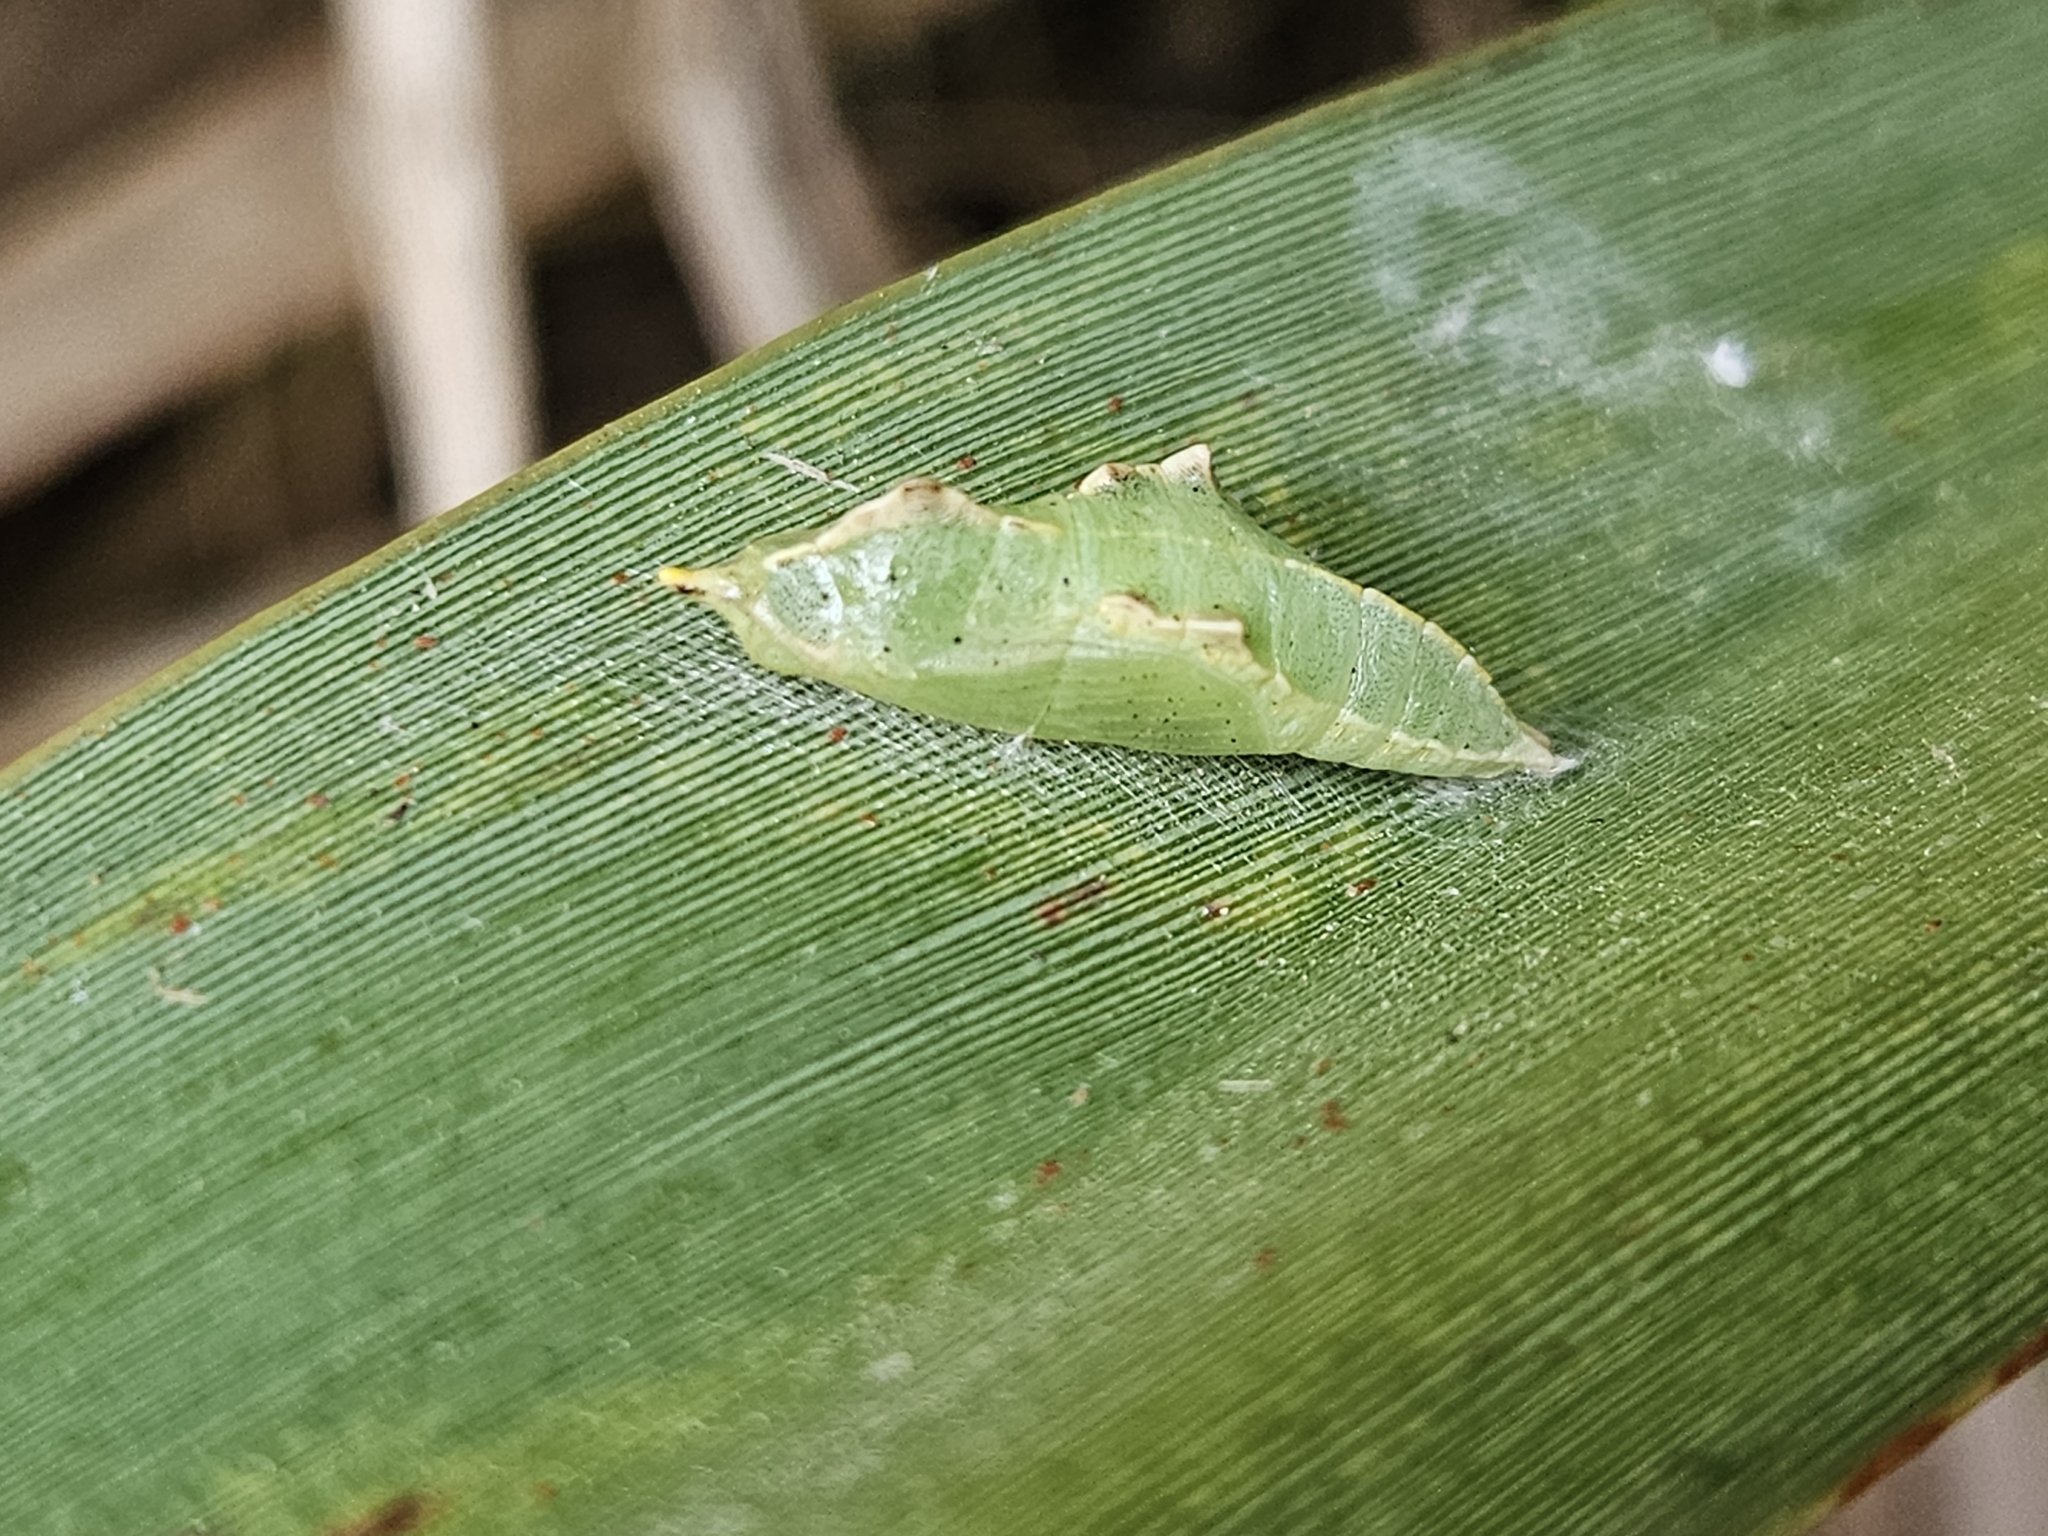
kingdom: Animalia
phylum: Arthropoda
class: Insecta
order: Lepidoptera
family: Pieridae
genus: Pieris
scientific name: Pieris rapae
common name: Small white
